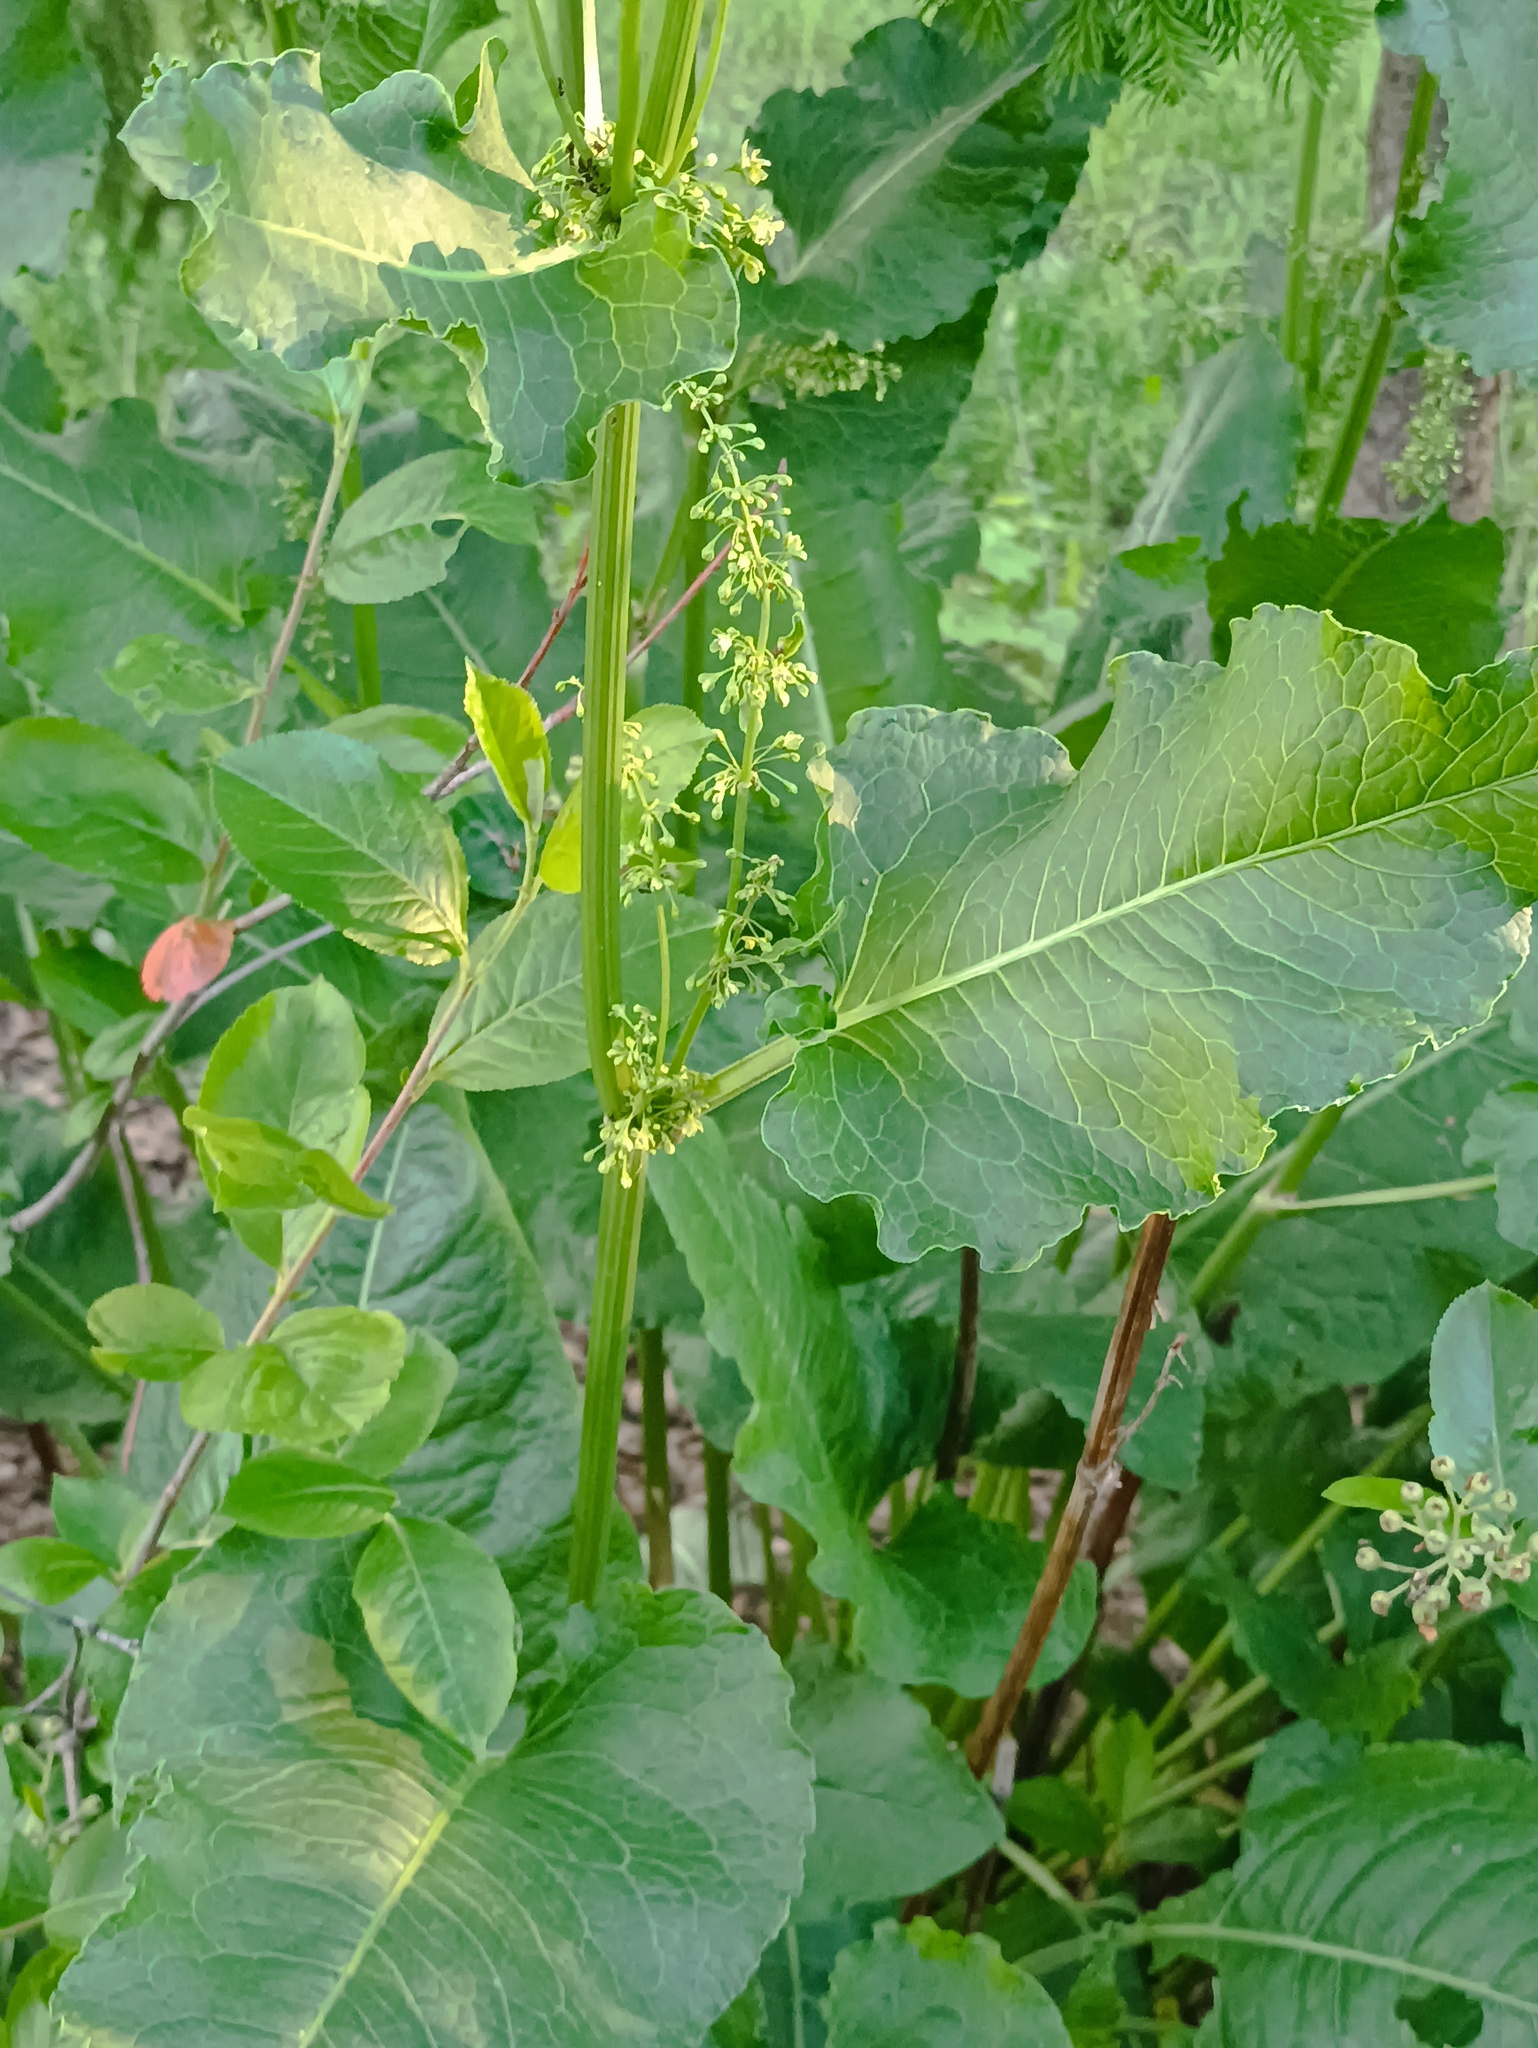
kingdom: Plantae
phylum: Tracheophyta
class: Magnoliopsida
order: Caryophyllales
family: Polygonaceae
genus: Rumex
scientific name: Rumex confertus
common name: Russian dock
